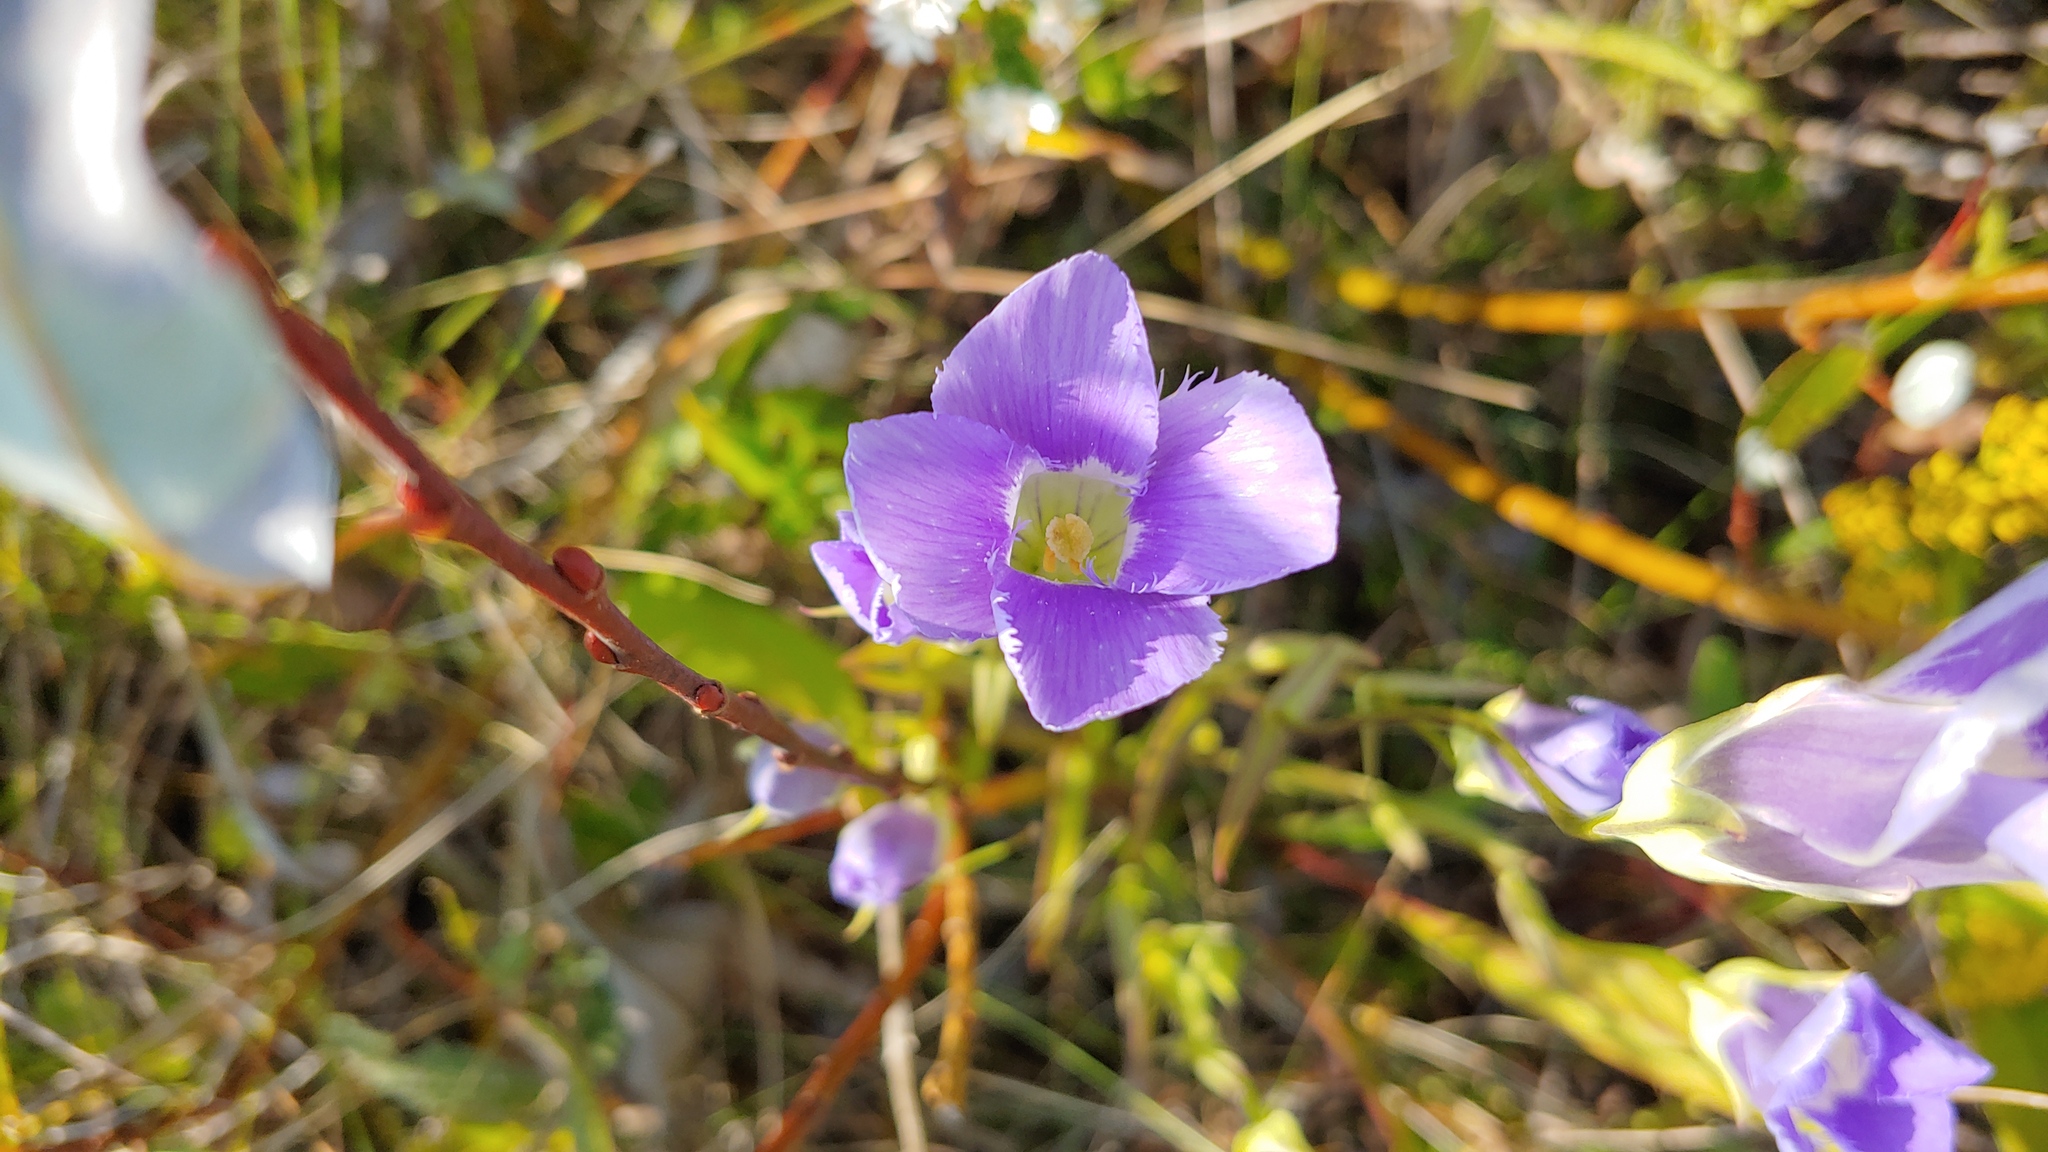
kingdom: Plantae
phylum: Tracheophyta
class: Magnoliopsida
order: Gentianales
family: Gentianaceae
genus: Gentianopsis
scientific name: Gentianopsis virgata
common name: Lesser fringed-gentian
